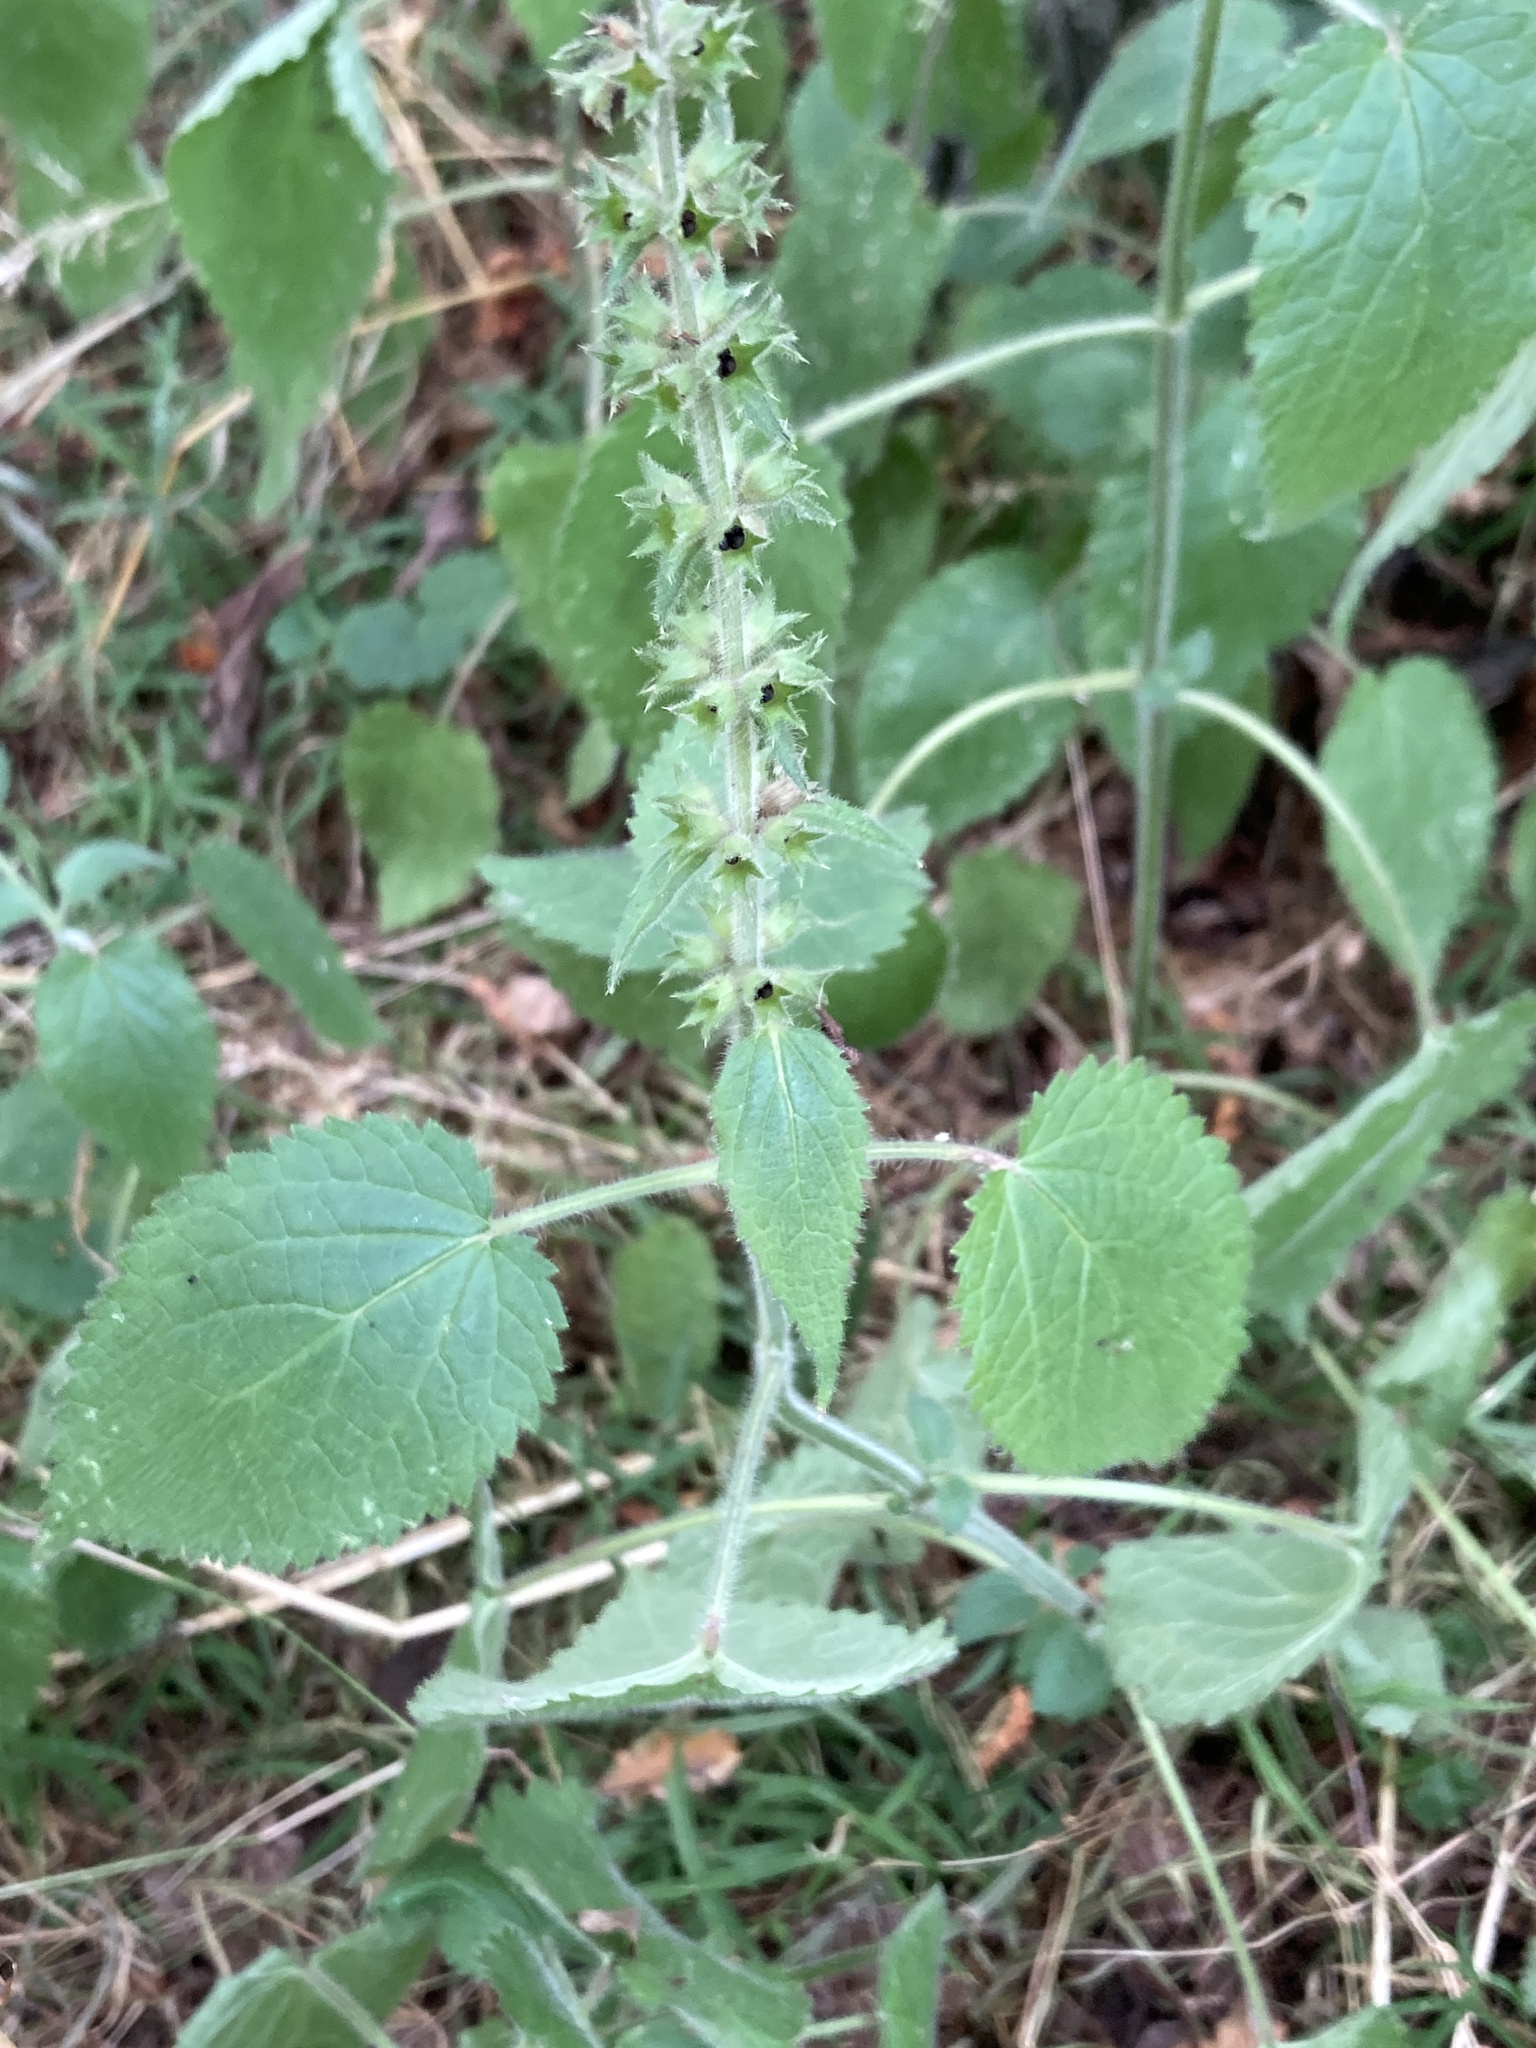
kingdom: Plantae
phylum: Tracheophyta
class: Magnoliopsida
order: Lamiales
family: Lamiaceae
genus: Stachys
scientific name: Stachys sylvatica
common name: Hedge woundwort
